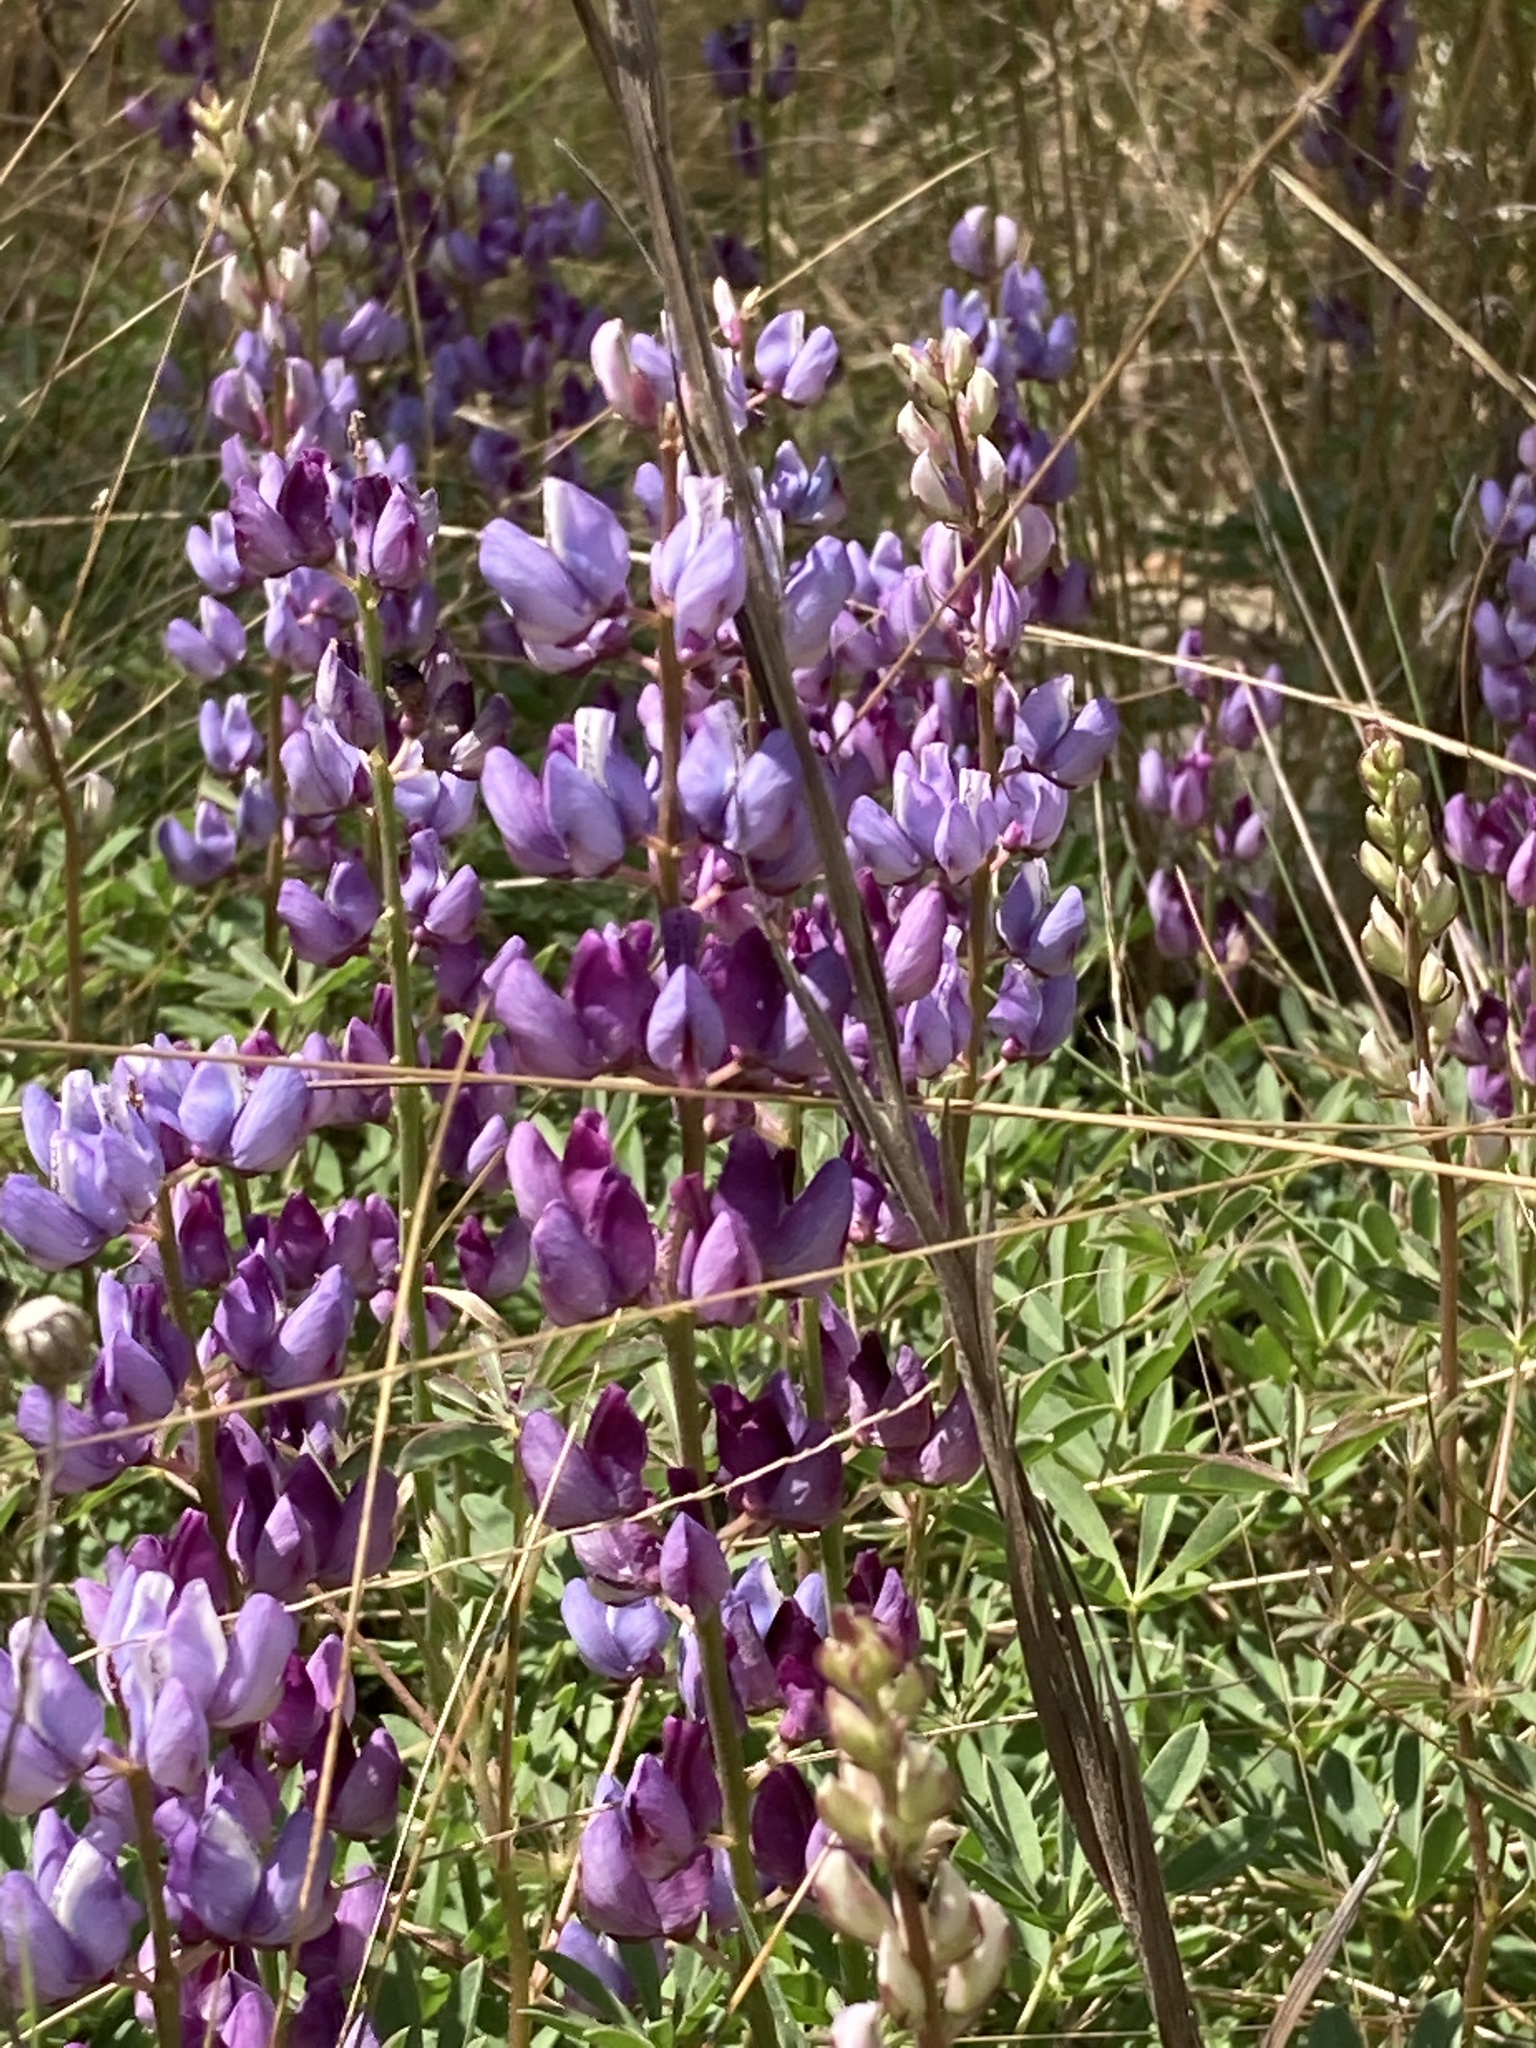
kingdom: Plantae
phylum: Tracheophyta
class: Magnoliopsida
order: Fabales
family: Fabaceae
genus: Lupinus
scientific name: Lupinus perennis
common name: Sundial lupine
